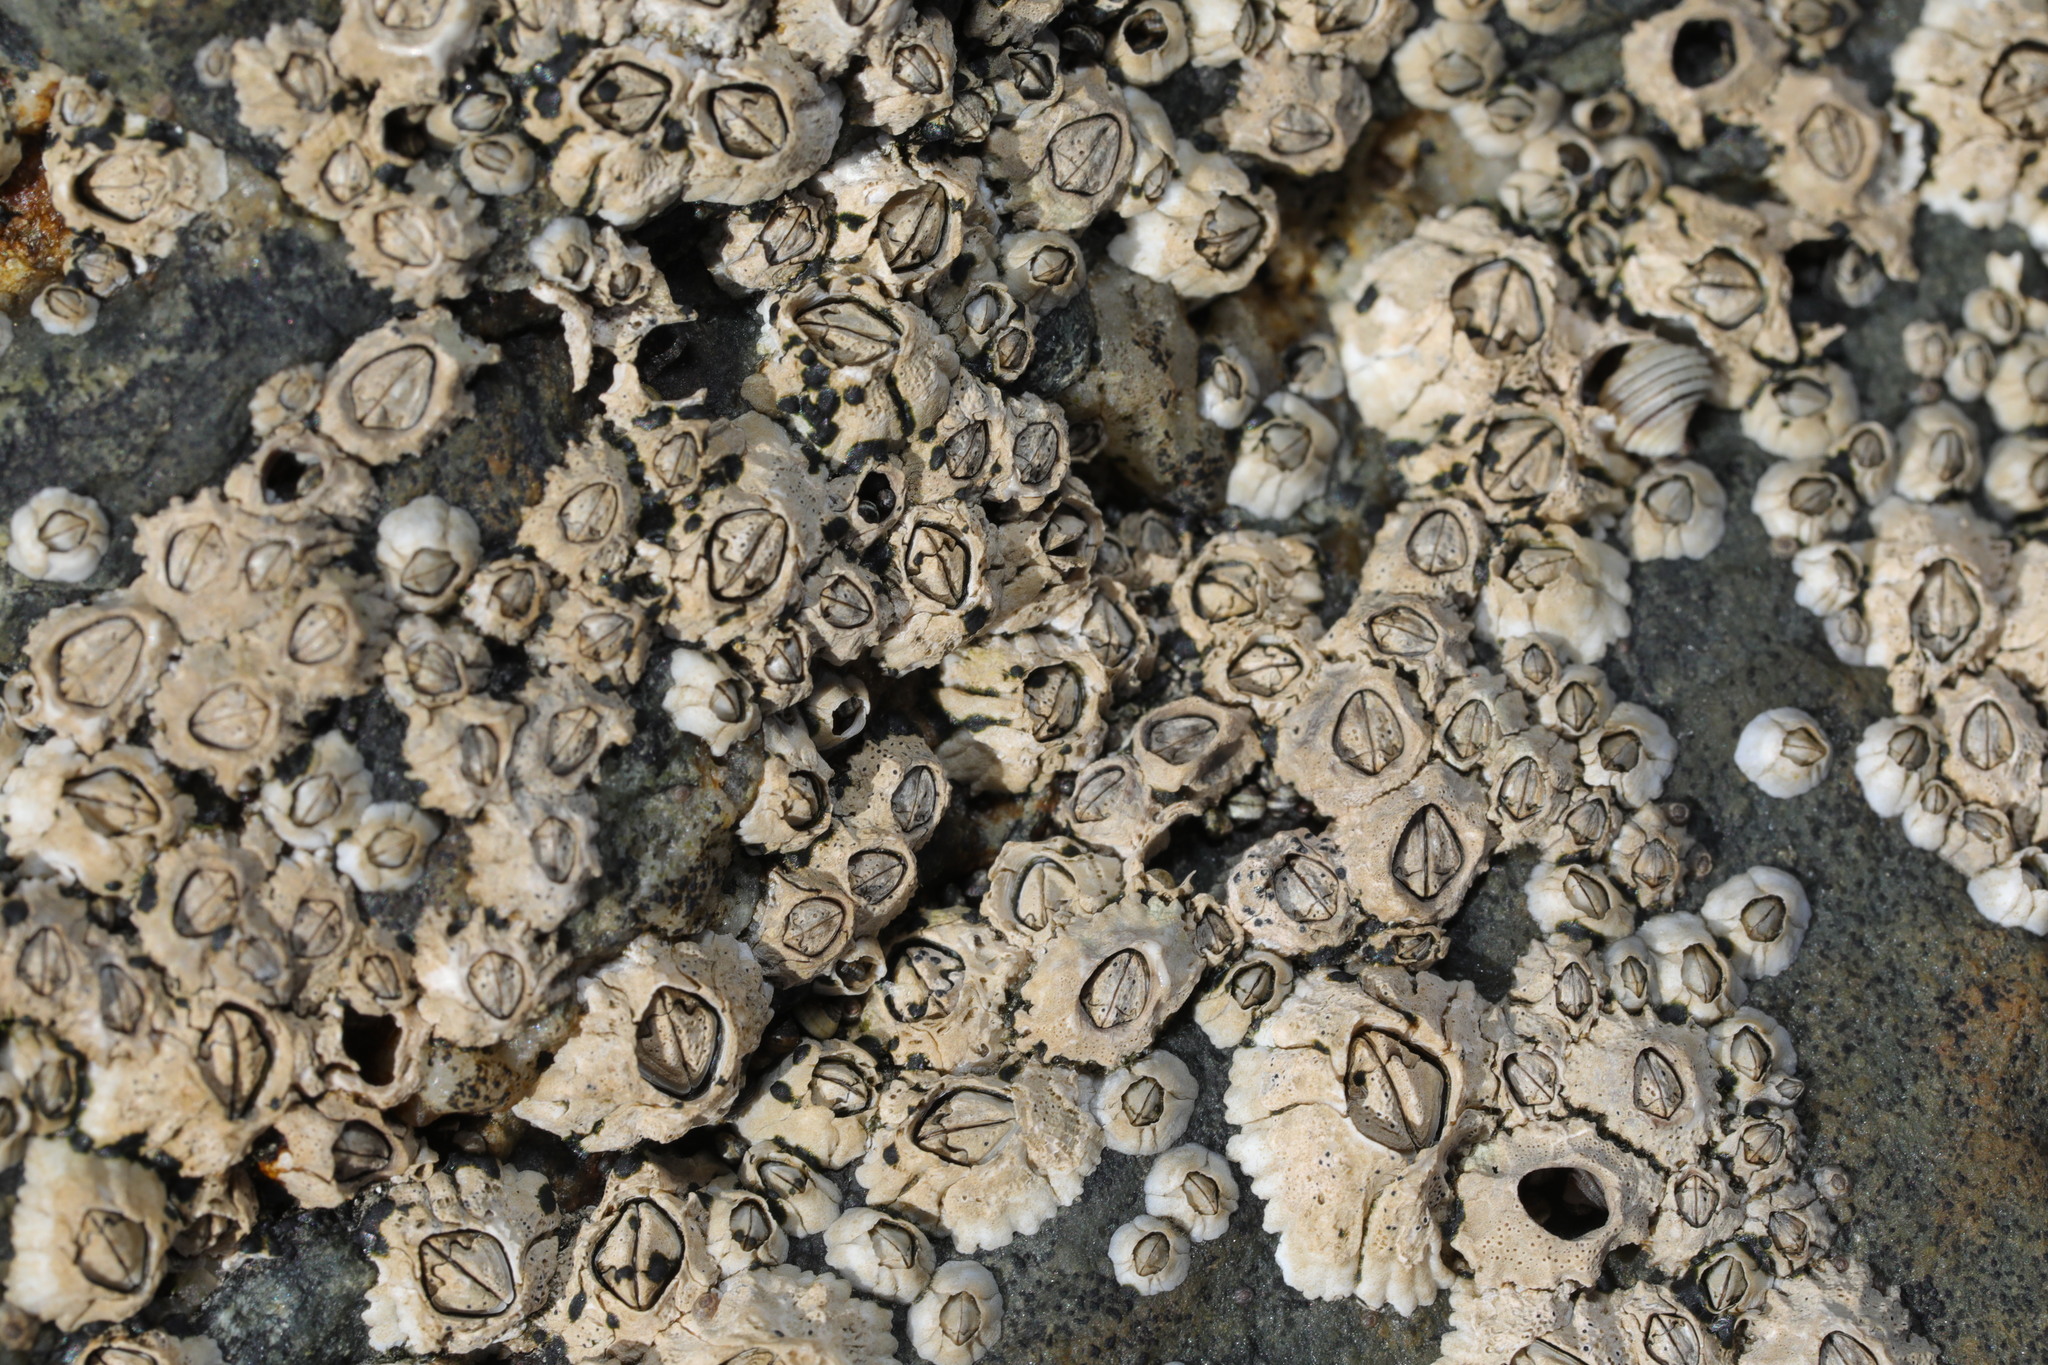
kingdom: Animalia
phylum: Arthropoda
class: Maxillopoda
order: Sessilia
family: Archaeobalanidae
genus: Semibalanus
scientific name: Semibalanus balanoides
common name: Acorn barnacle
